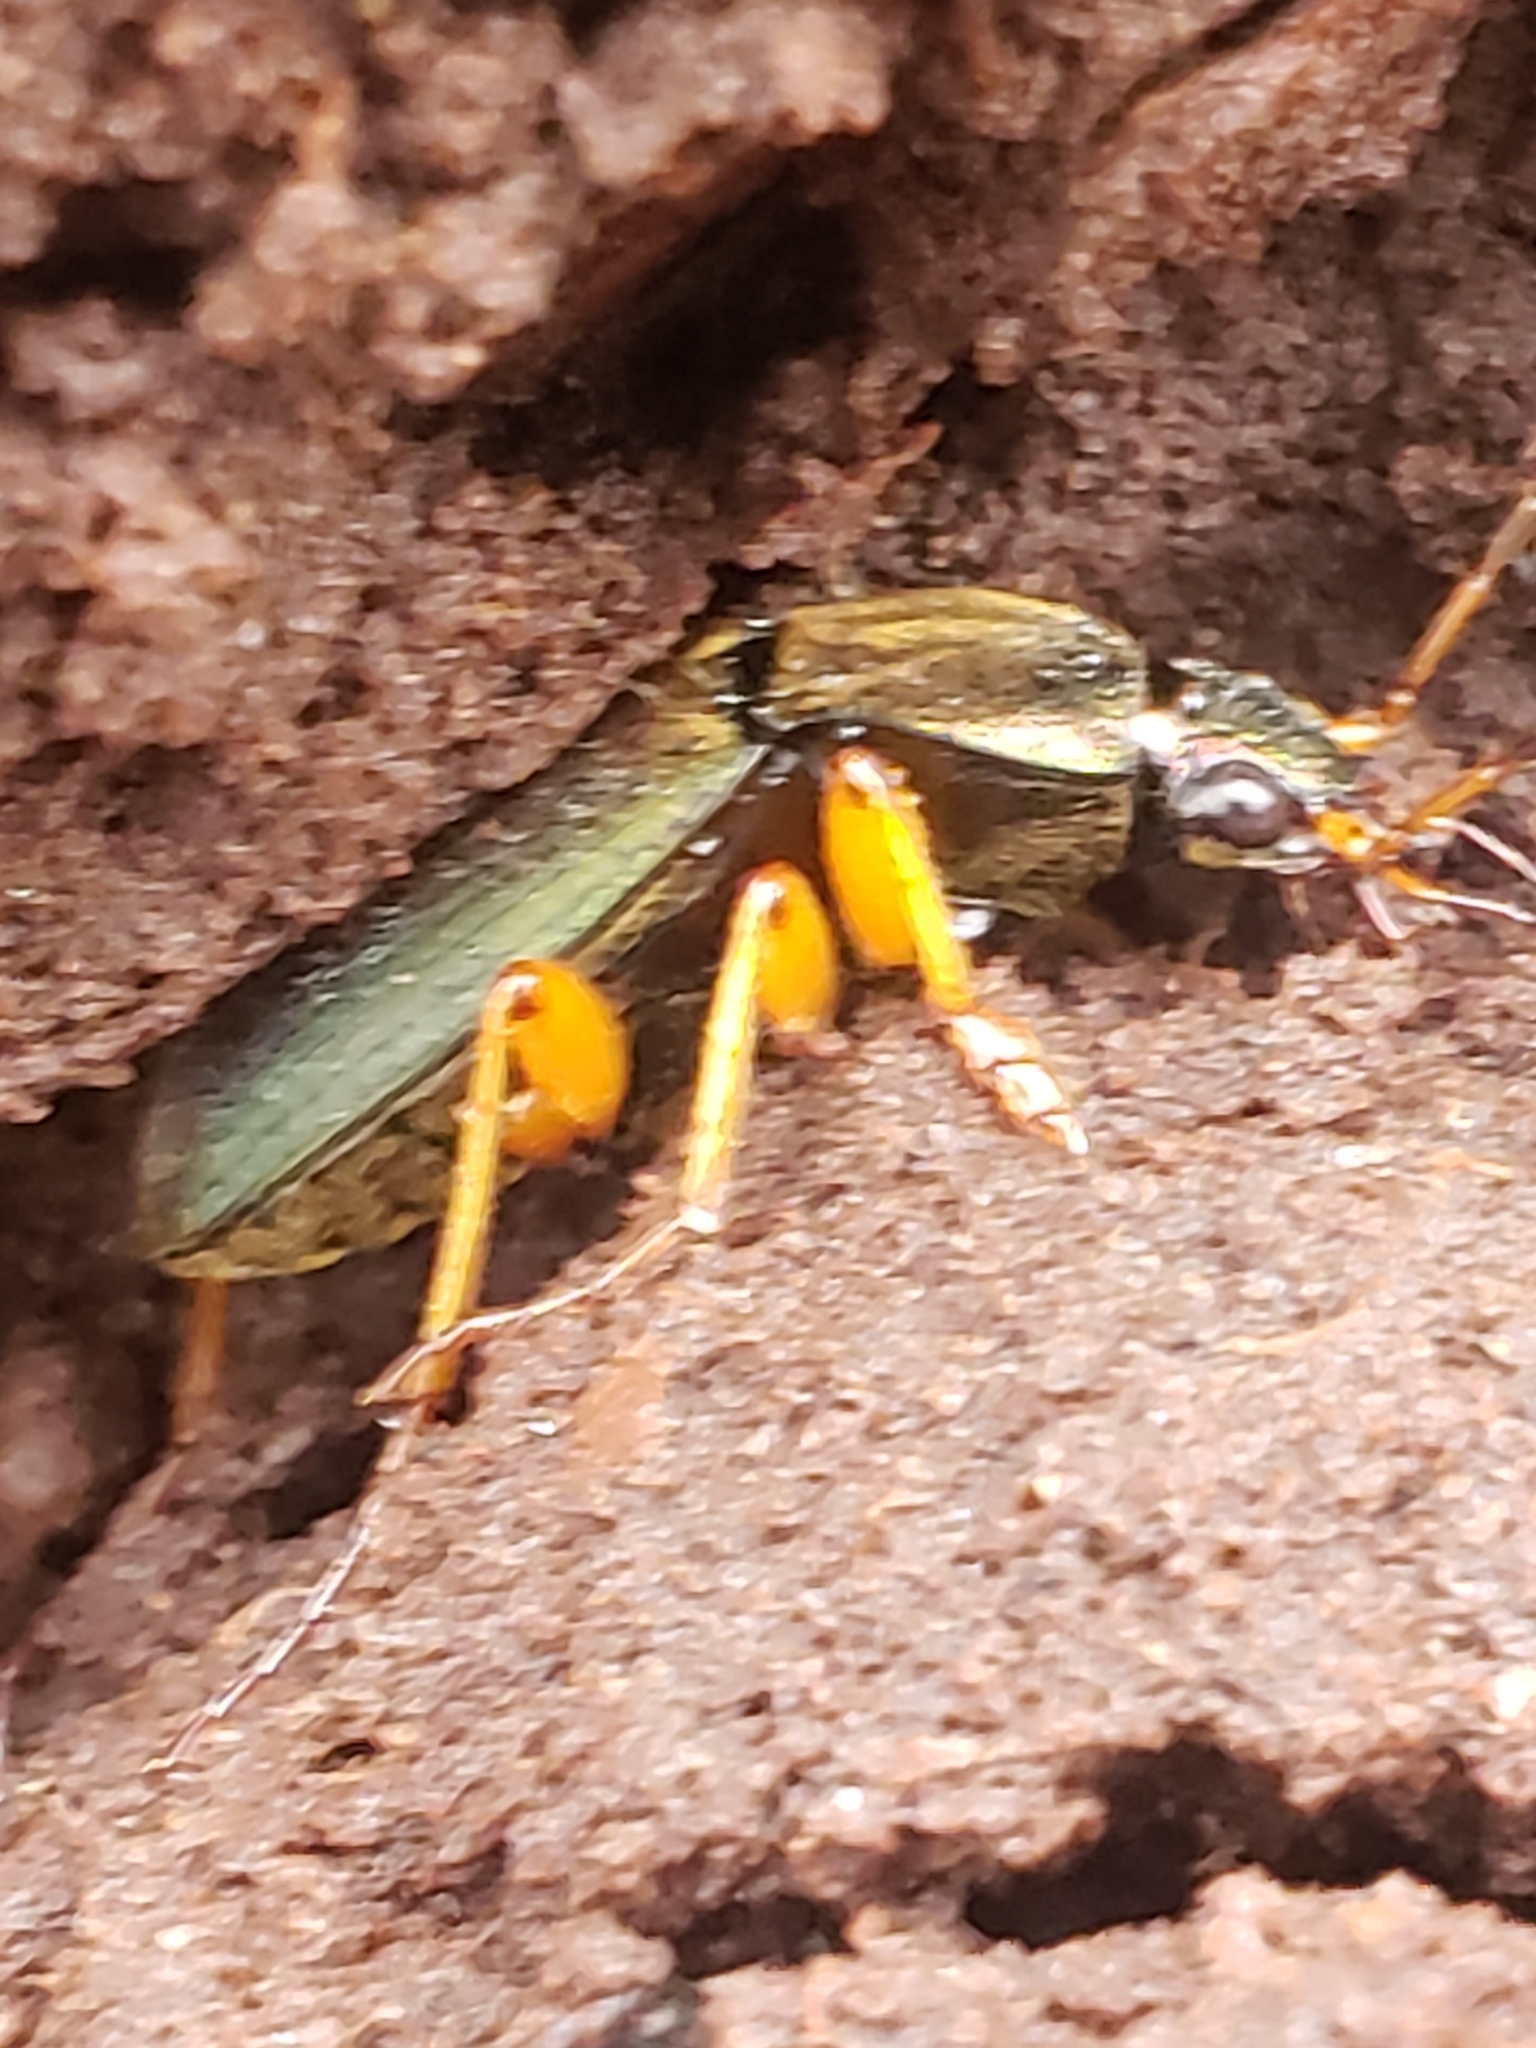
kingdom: Animalia
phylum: Arthropoda
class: Insecta
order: Coleoptera
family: Carabidae
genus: Chlaenius
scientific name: Chlaenius aestivus
